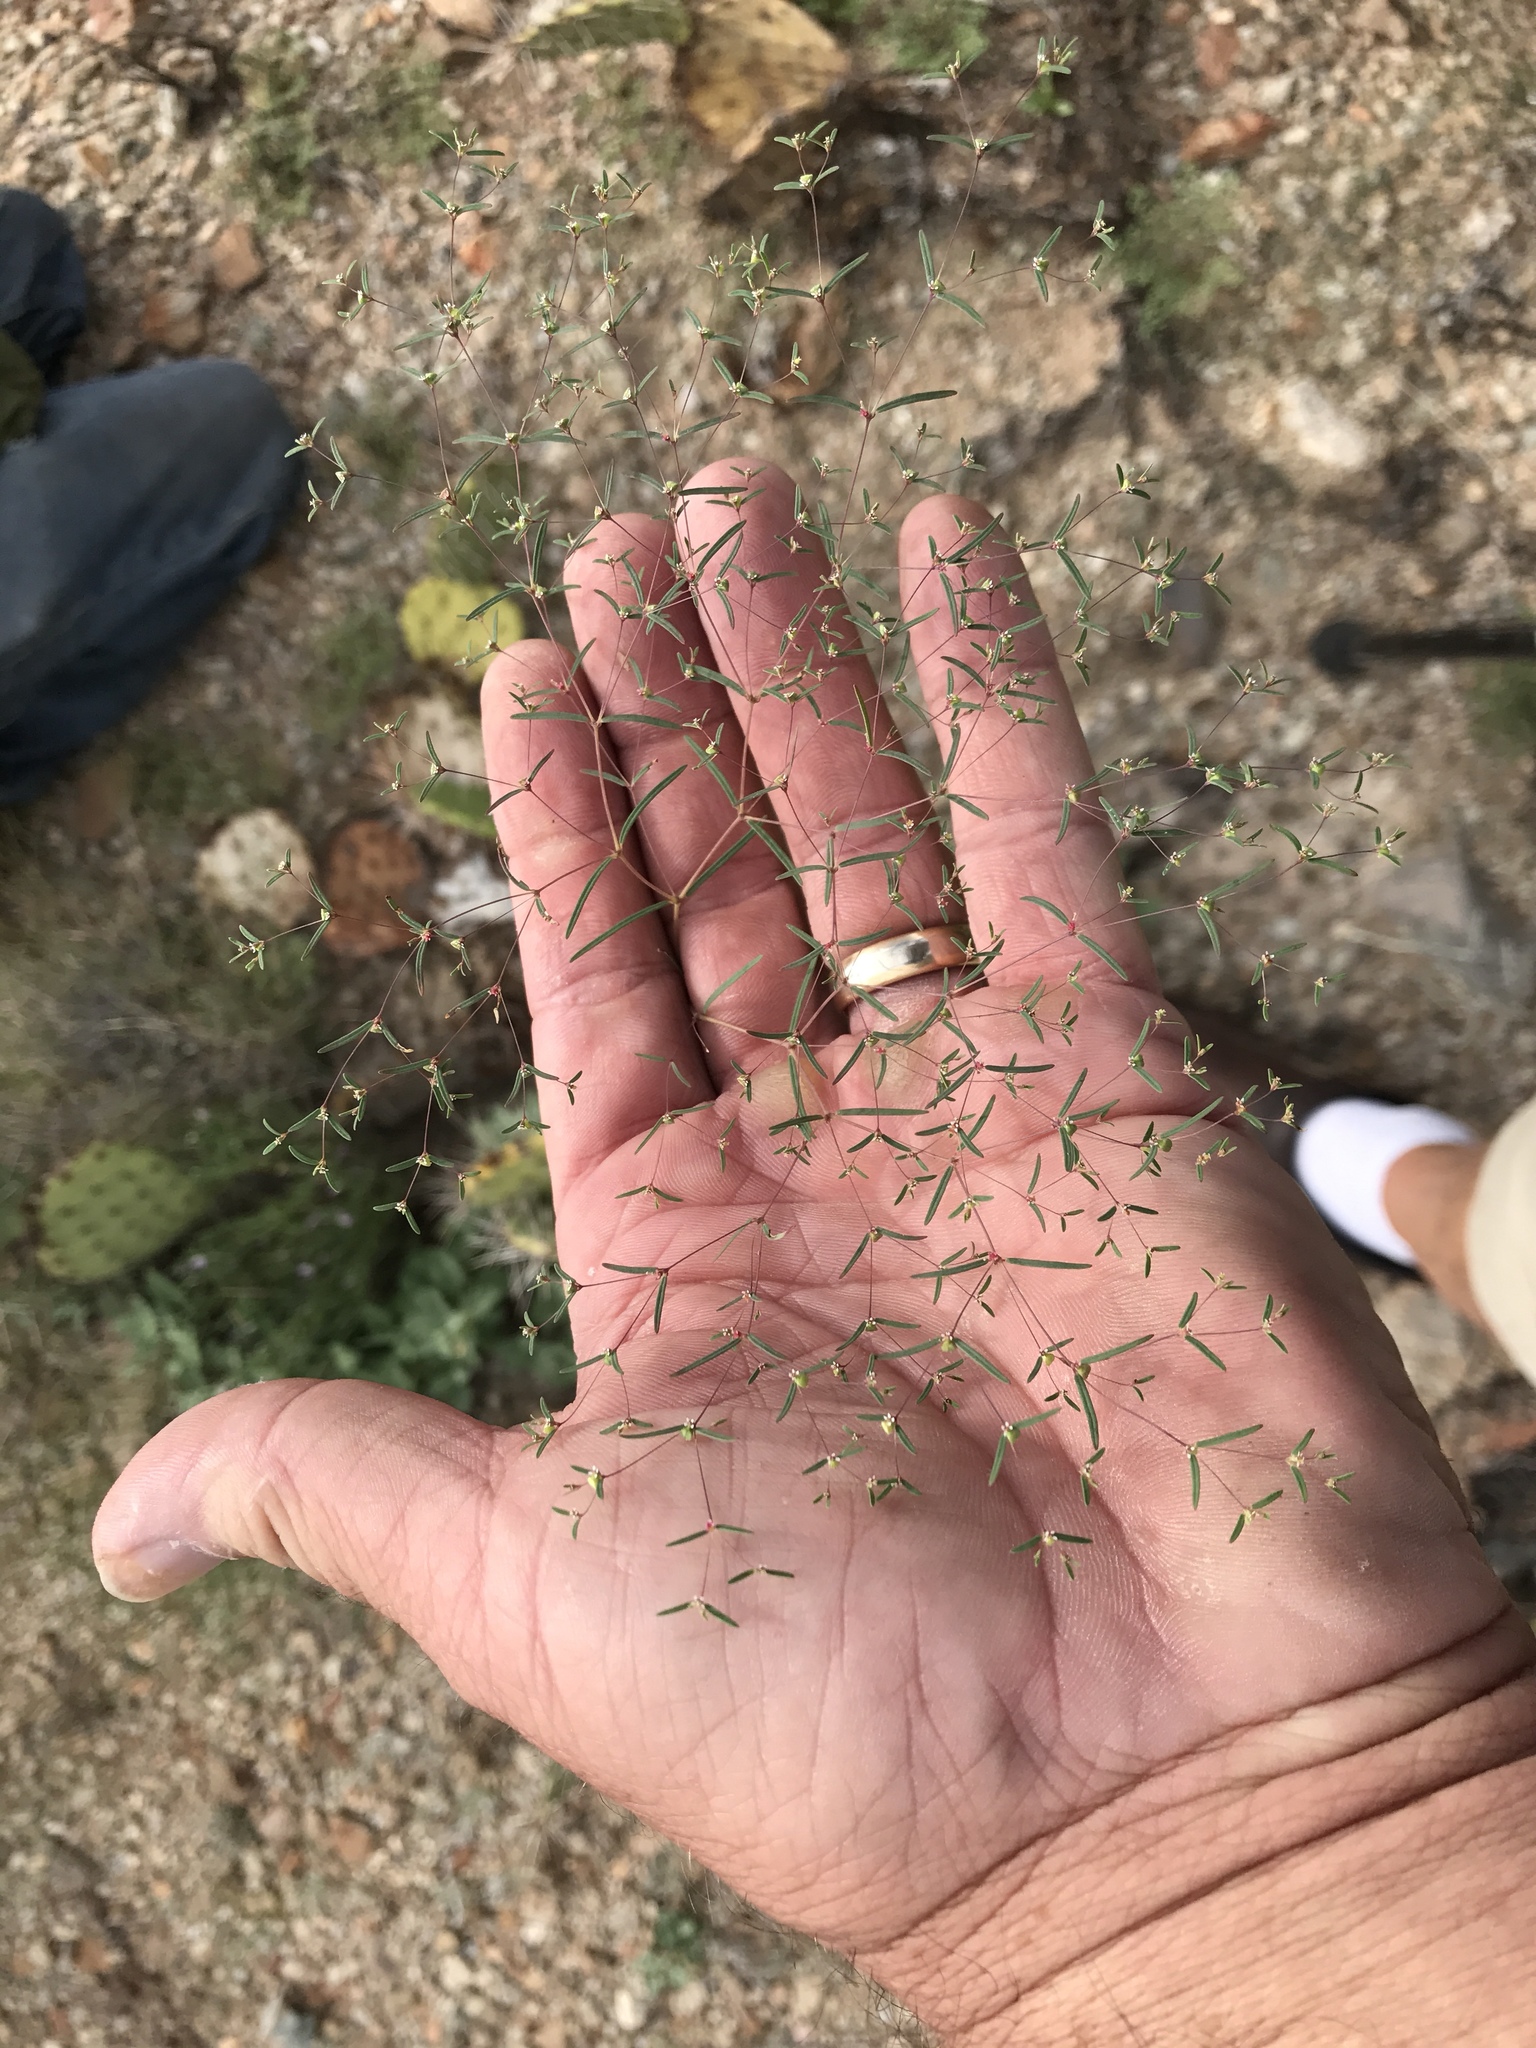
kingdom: Plantae
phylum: Tracheophyta
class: Magnoliopsida
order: Malpighiales
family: Euphorbiaceae
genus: Euphorbia
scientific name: Euphorbia gracillima
